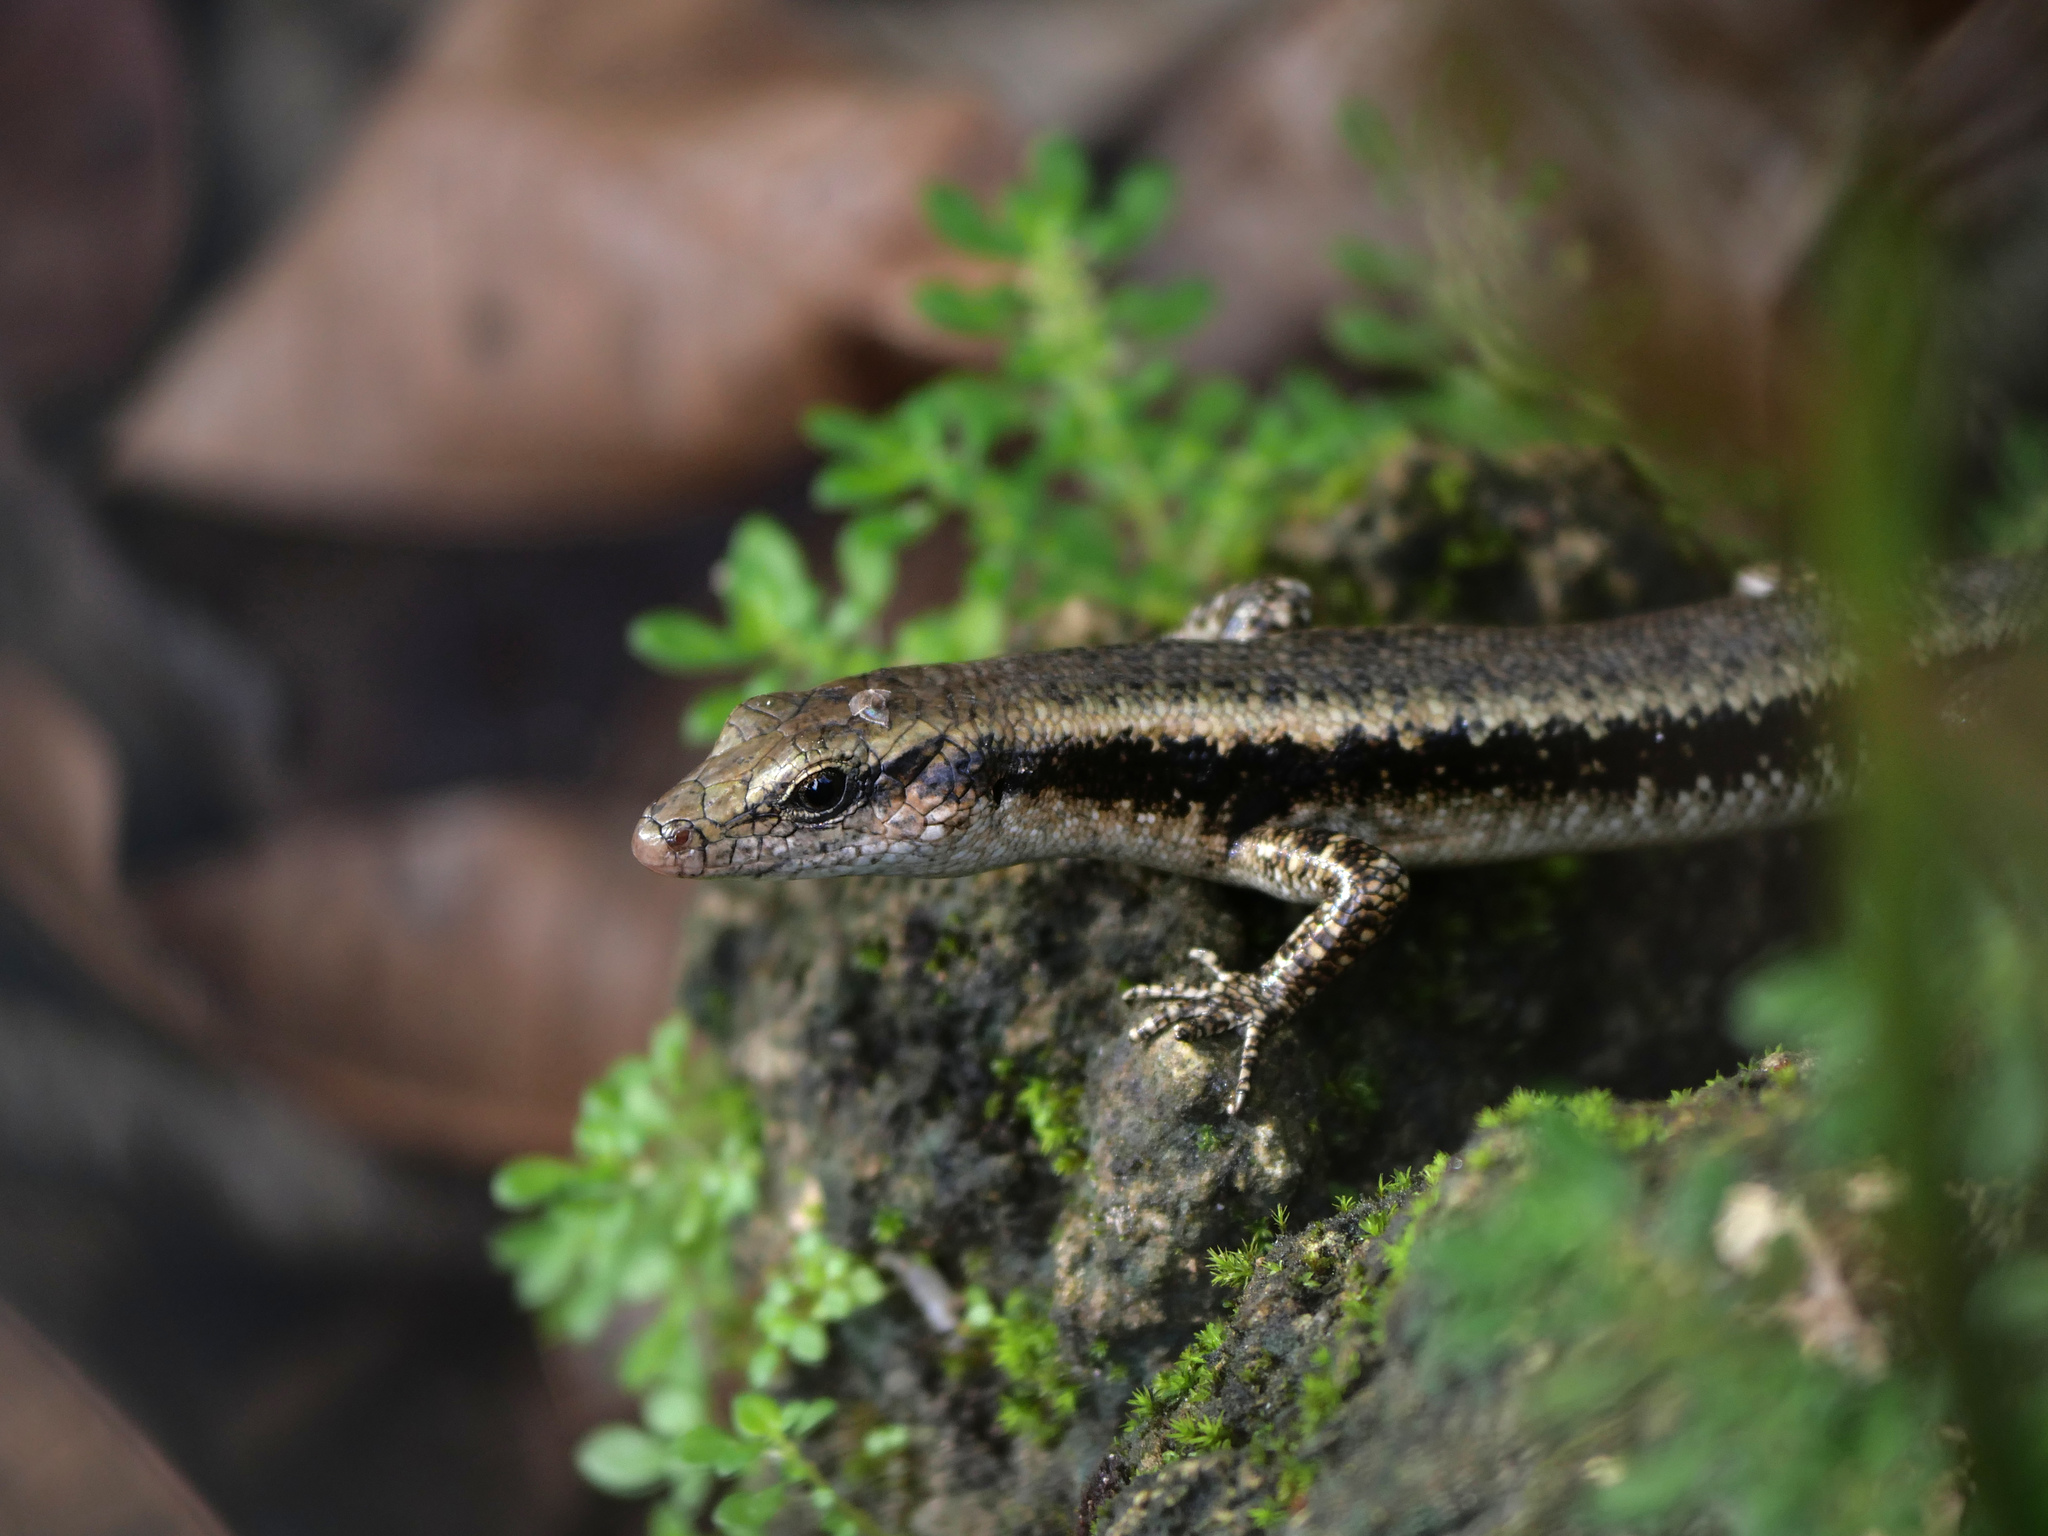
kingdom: Animalia
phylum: Chordata
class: Squamata
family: Scincidae
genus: Emoia
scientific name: Emoia atrocostata
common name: Littoral skink
